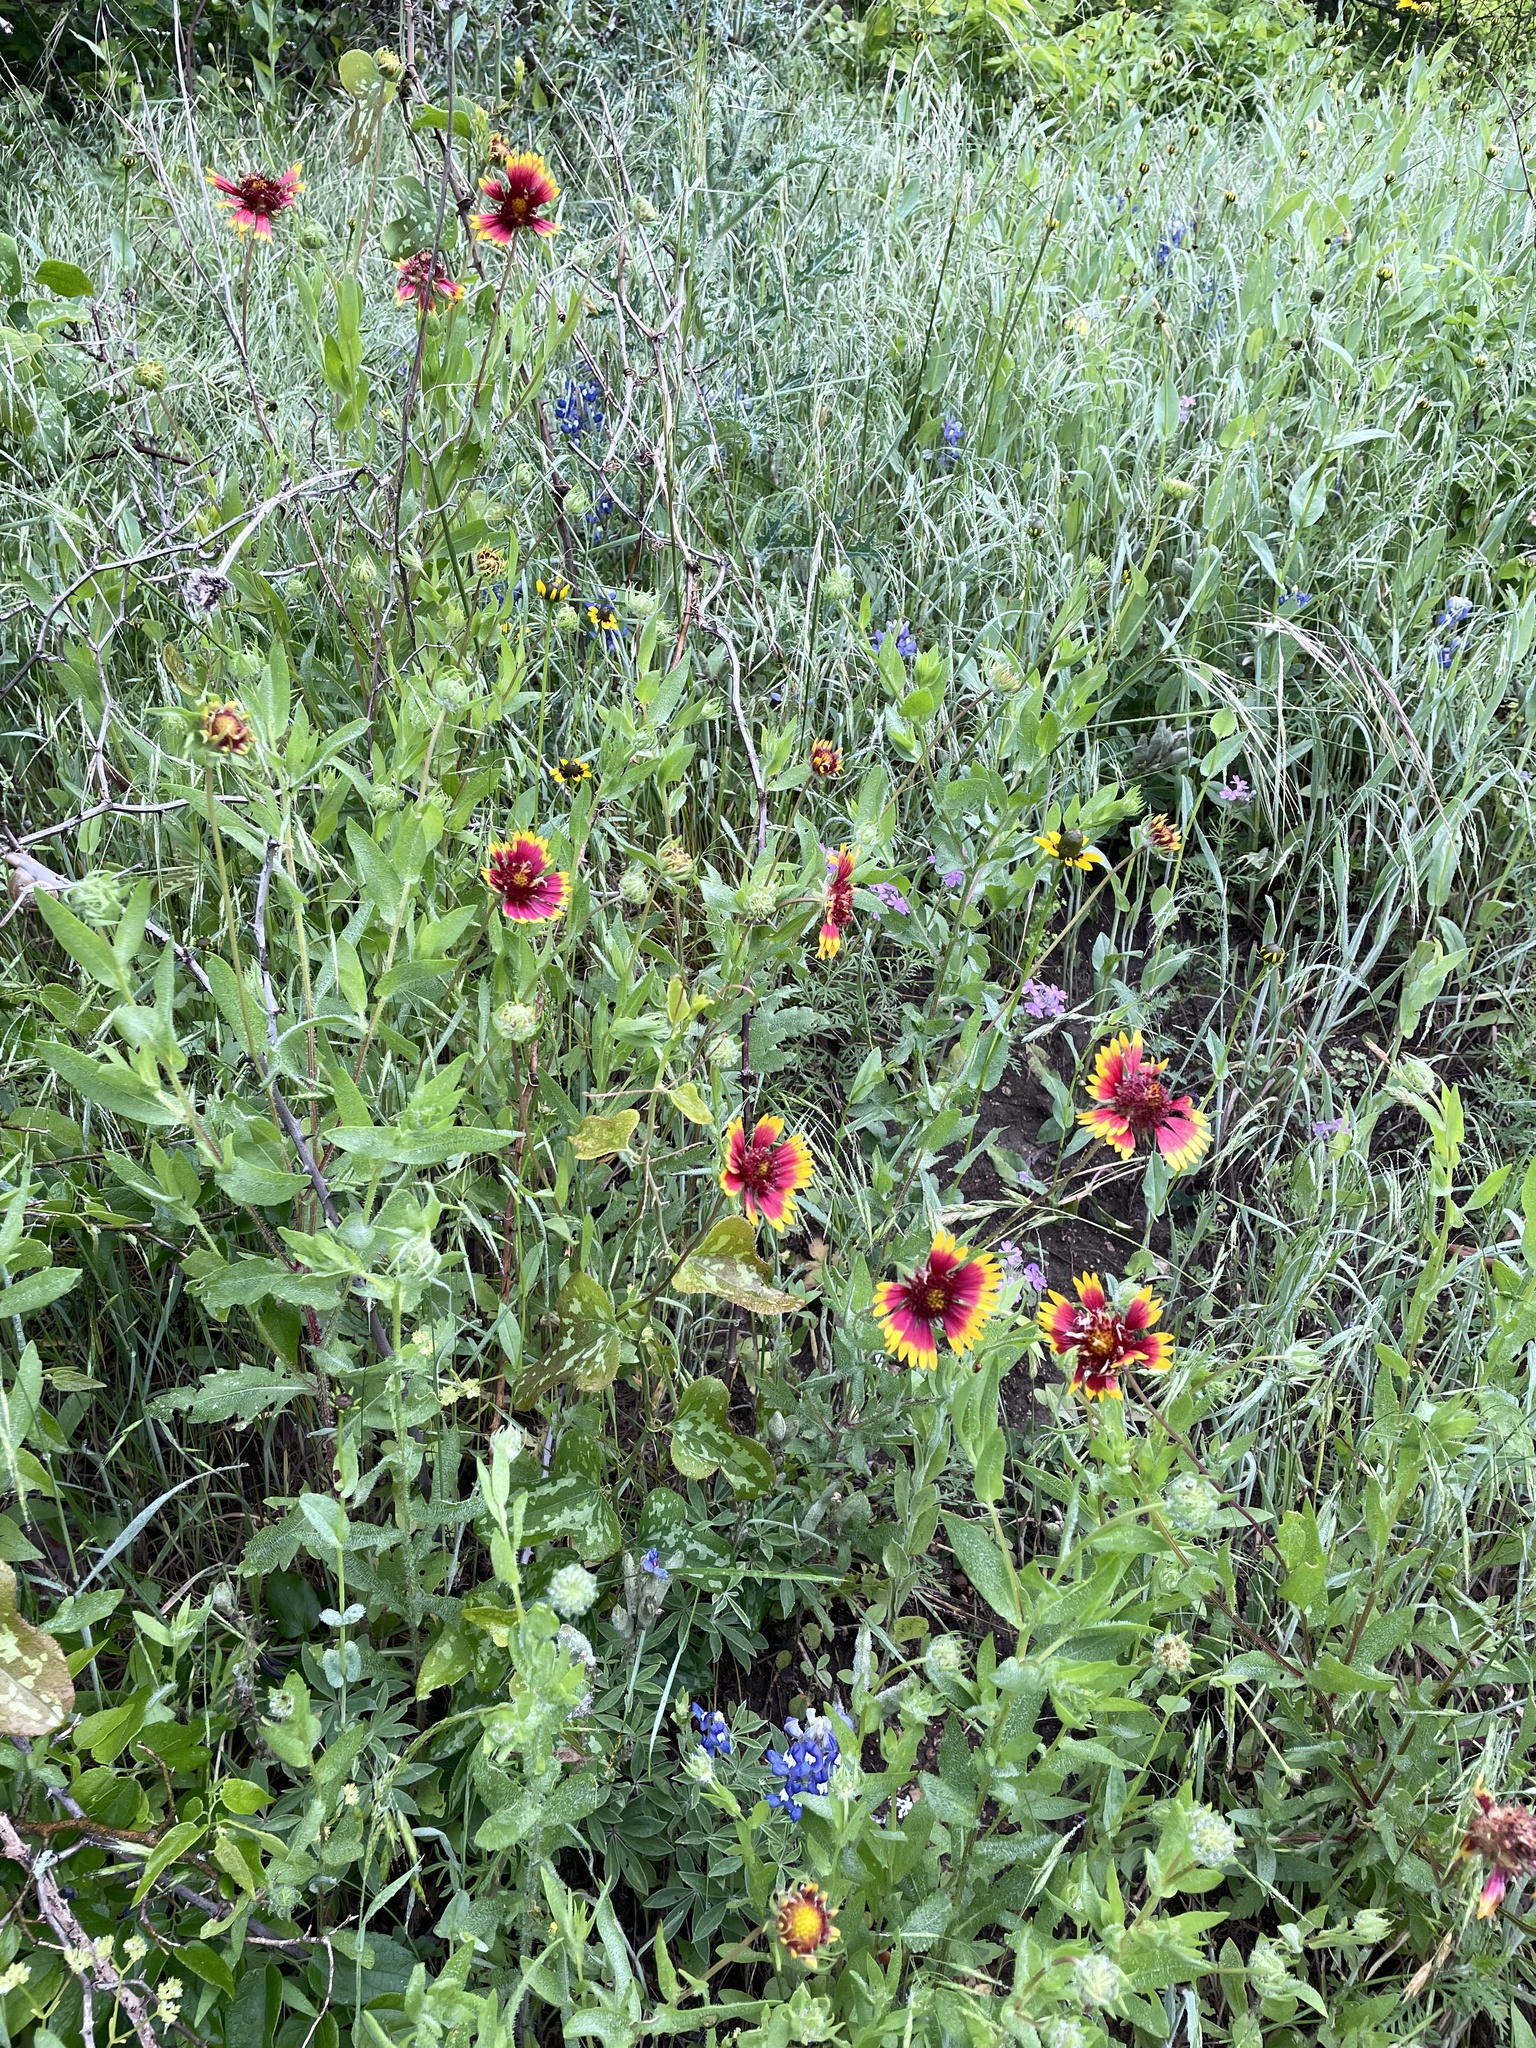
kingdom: Plantae
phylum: Tracheophyta
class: Magnoliopsida
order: Asterales
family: Asteraceae
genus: Gaillardia
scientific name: Gaillardia pulchella
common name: Firewheel
